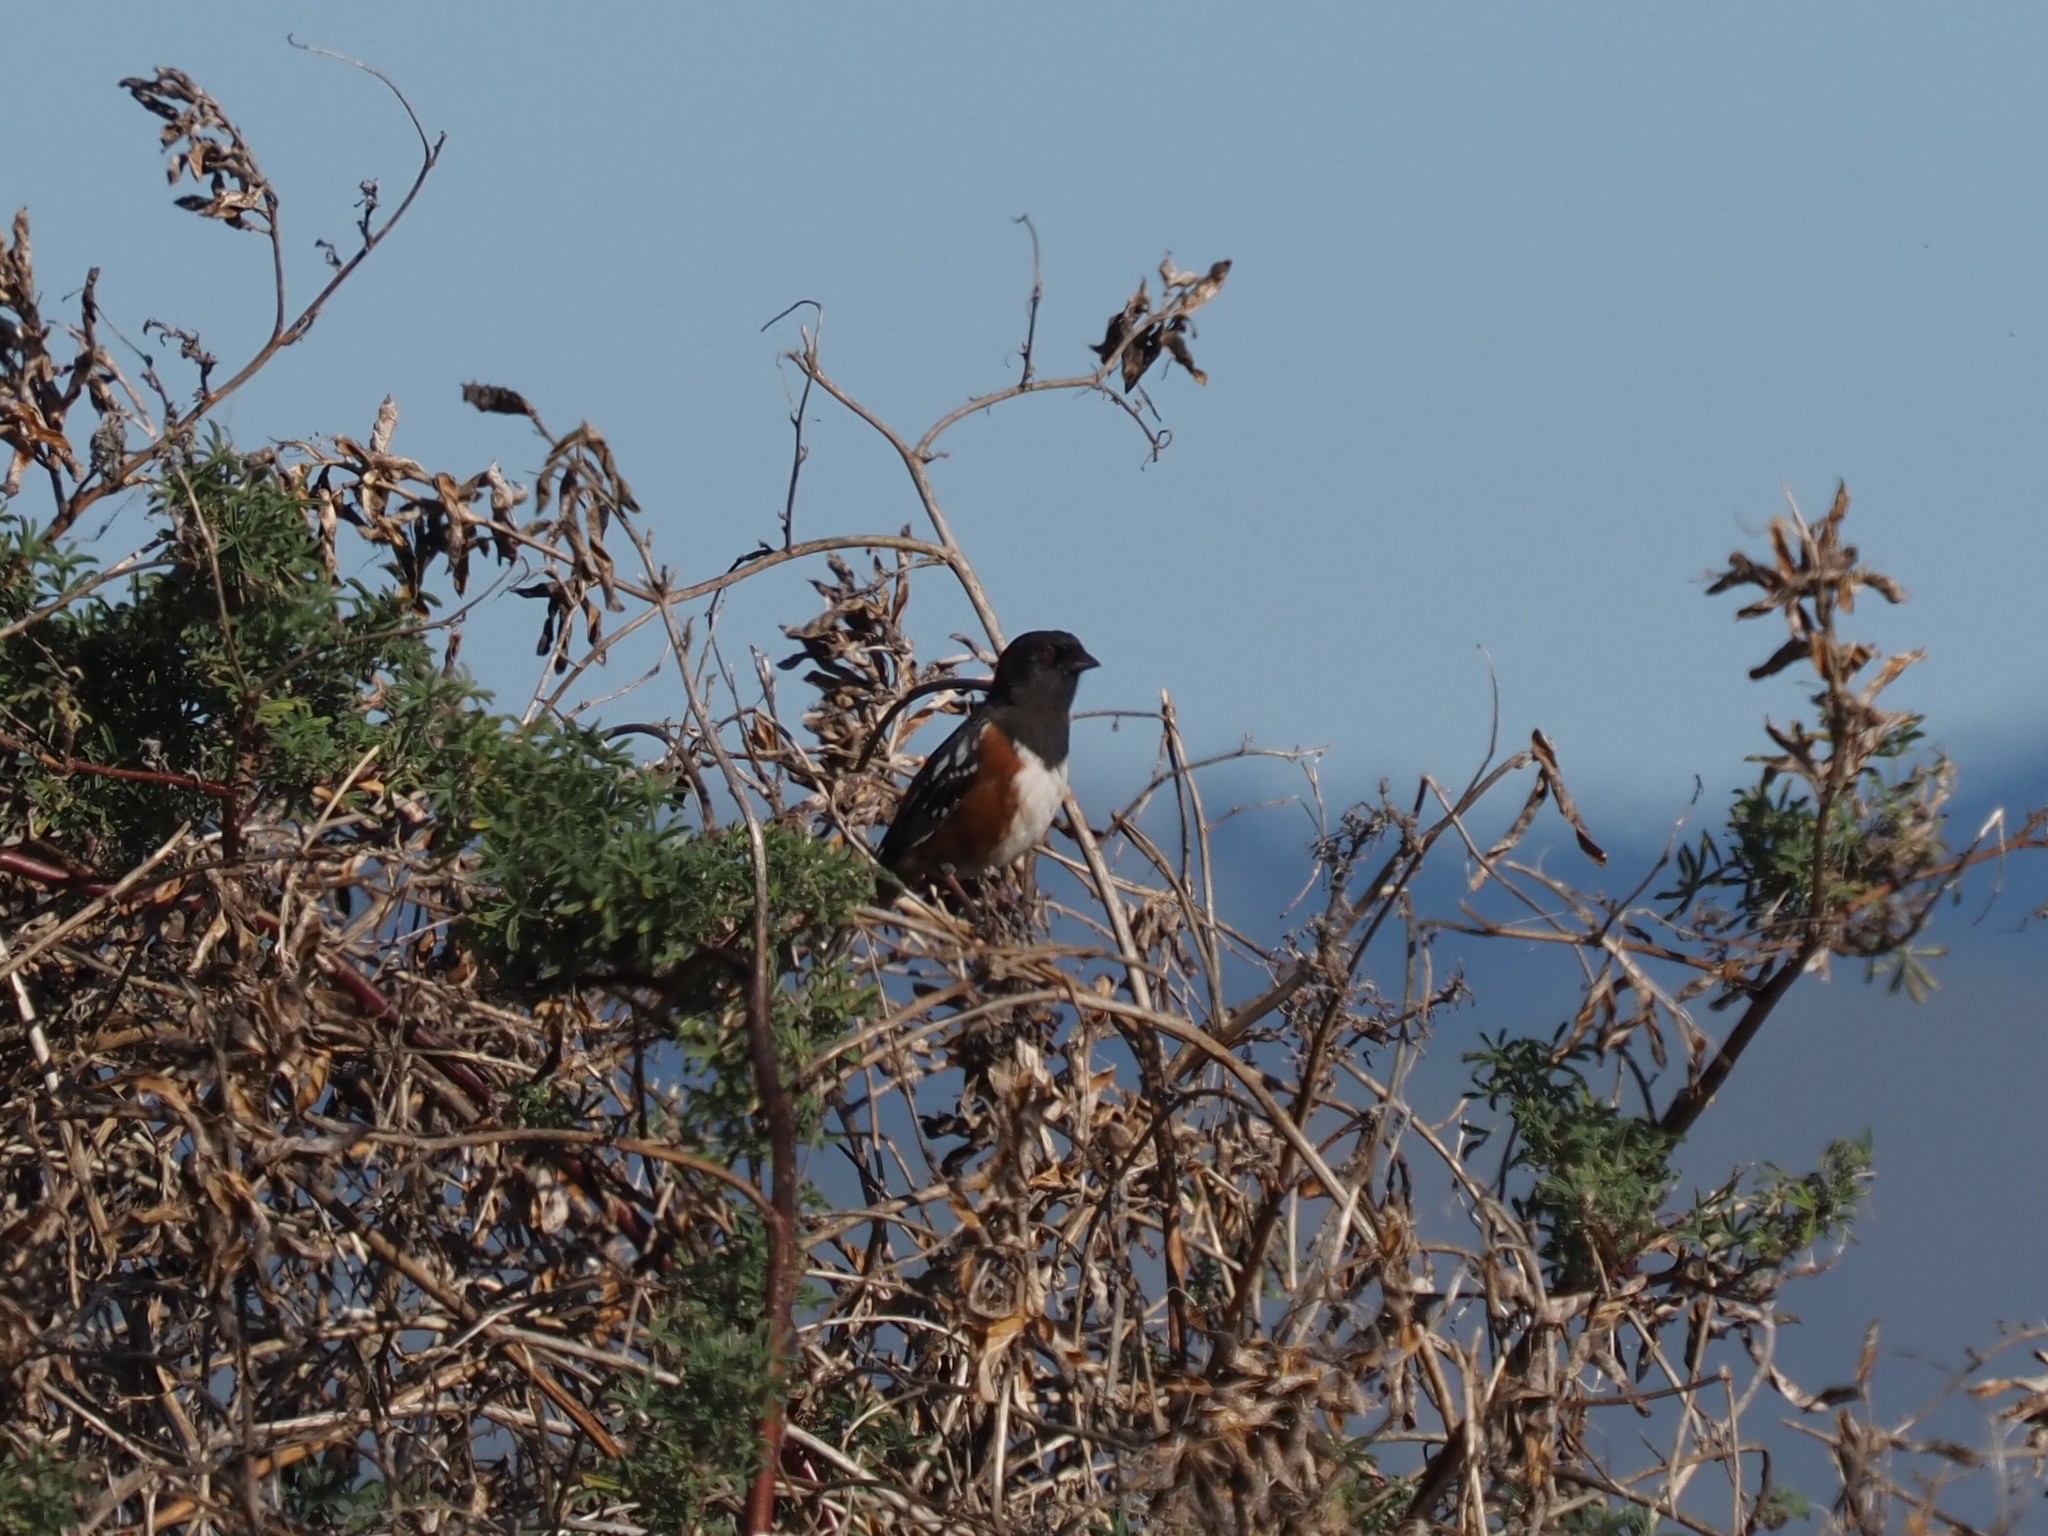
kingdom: Animalia
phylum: Chordata
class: Aves
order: Passeriformes
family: Passerellidae
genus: Pipilo
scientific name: Pipilo maculatus
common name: Spotted towhee
